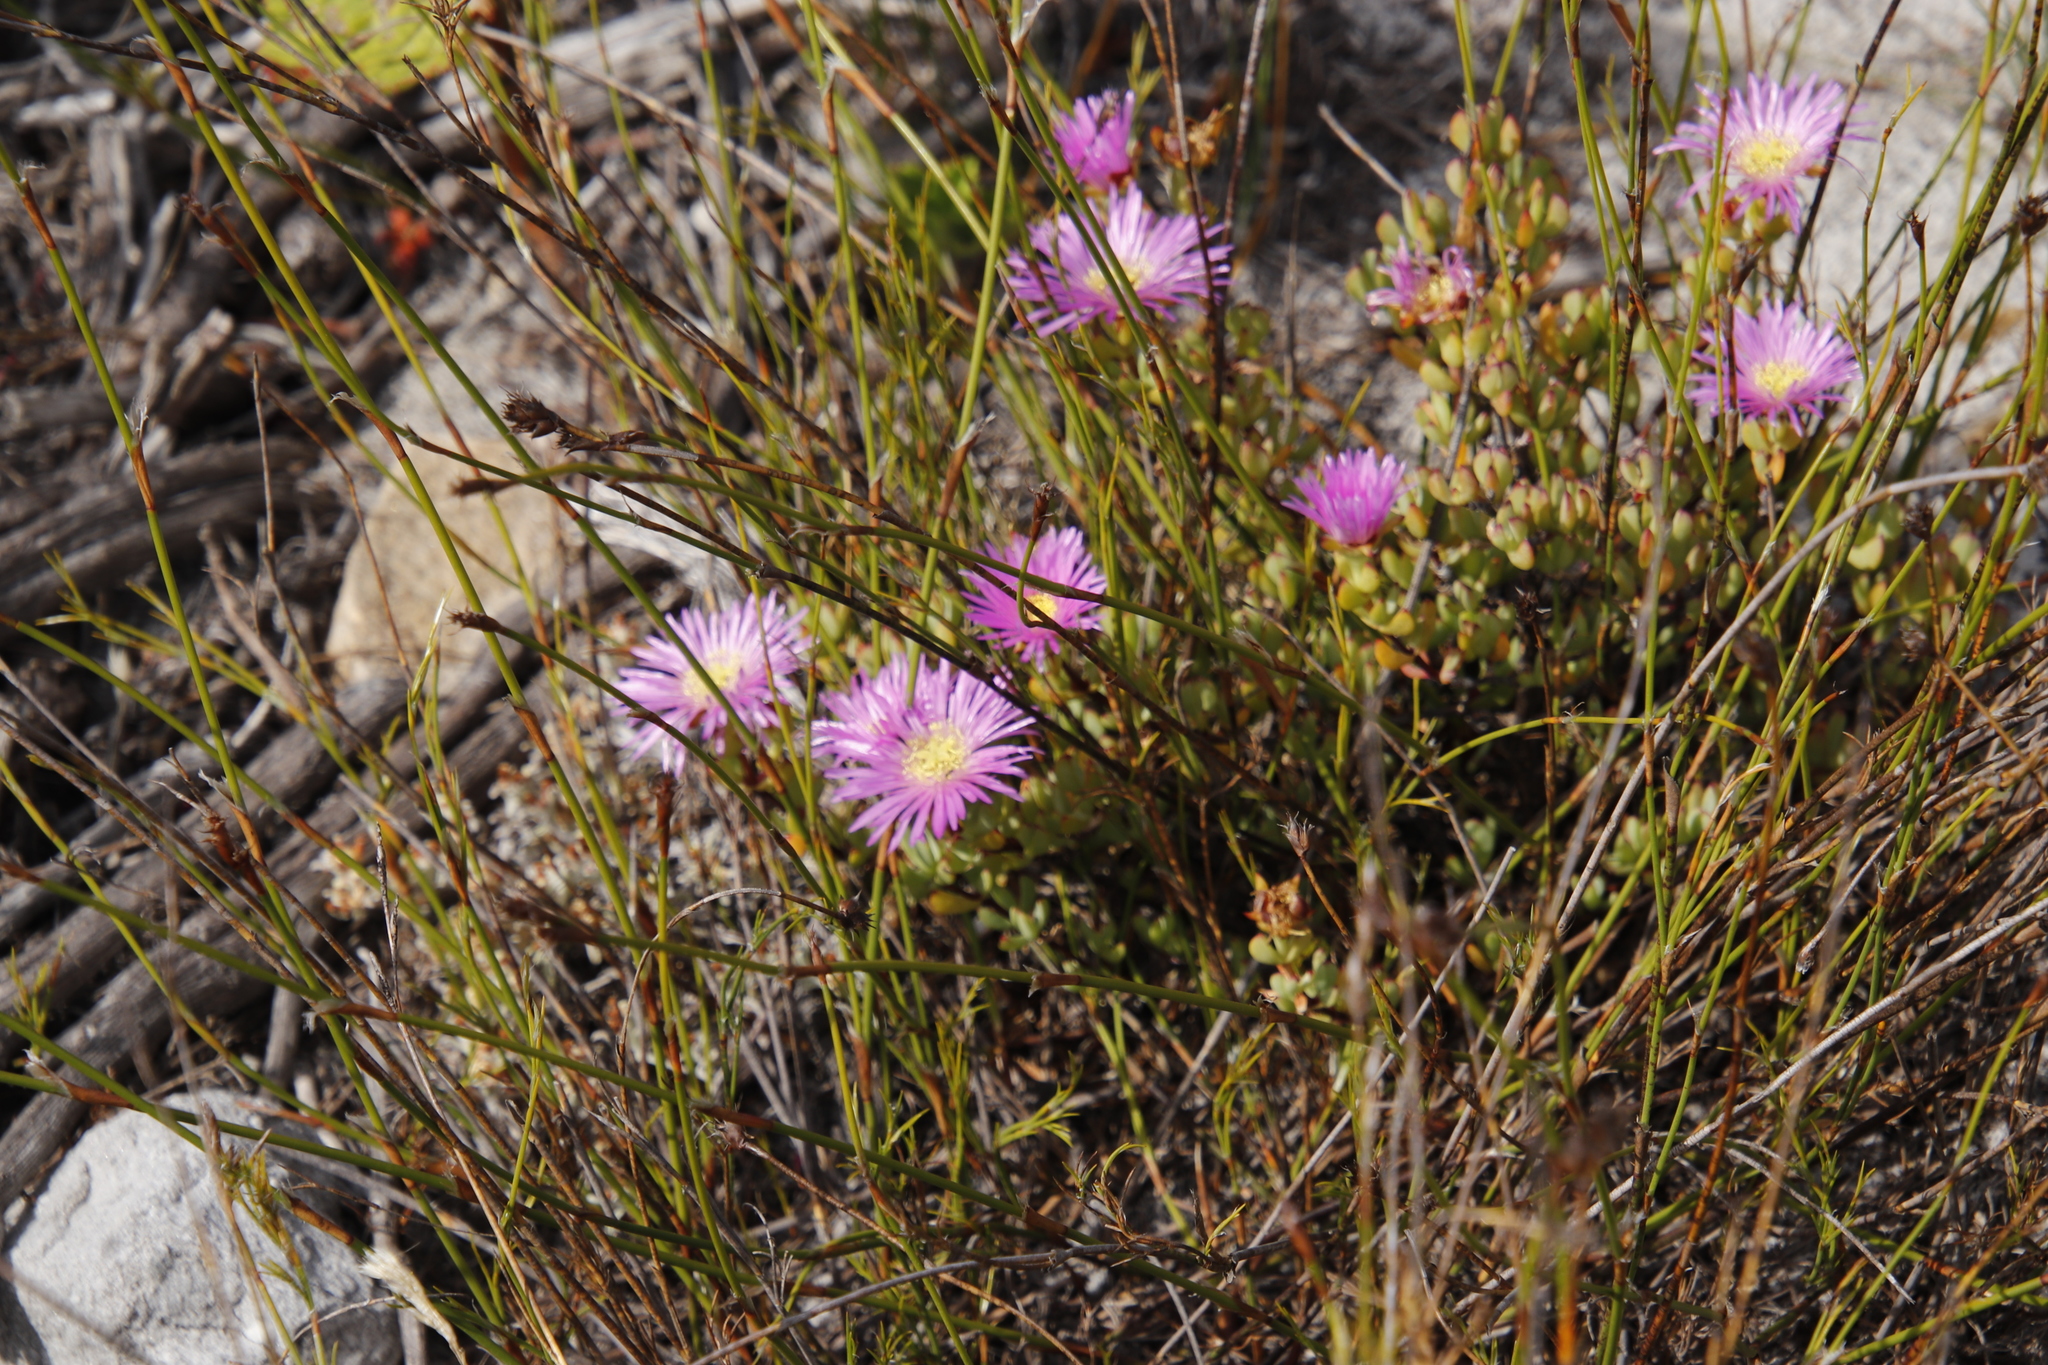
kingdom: Plantae
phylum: Tracheophyta
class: Magnoliopsida
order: Caryophyllales
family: Aizoaceae
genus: Oscularia
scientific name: Oscularia falciformis
